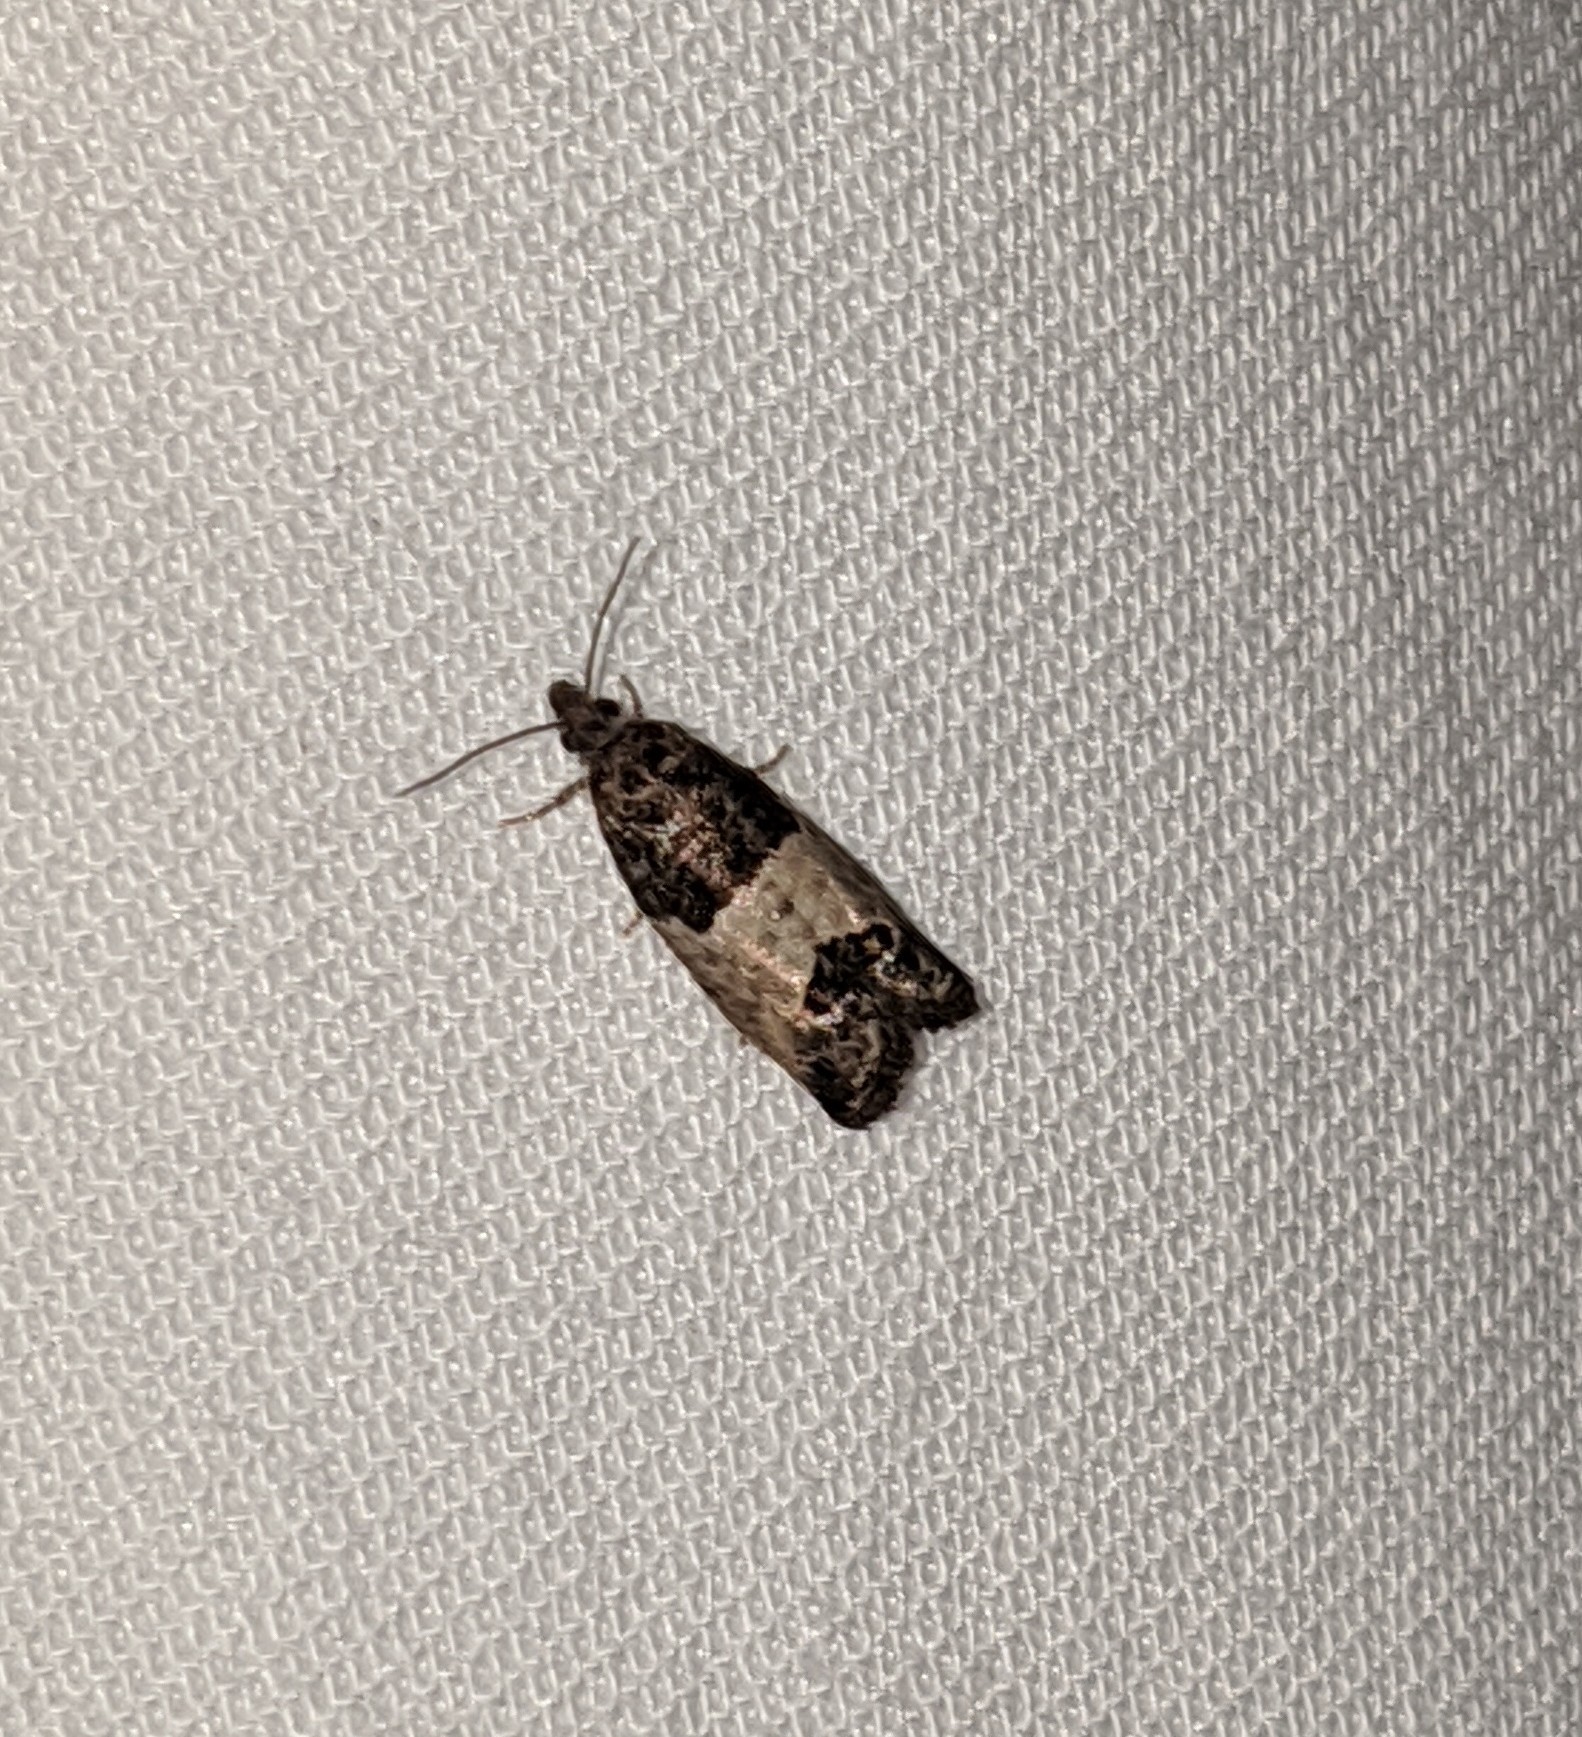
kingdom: Animalia
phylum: Arthropoda
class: Insecta
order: Lepidoptera
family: Tortricidae
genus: Spilonota
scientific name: Spilonota ocellana
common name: Bud moth
